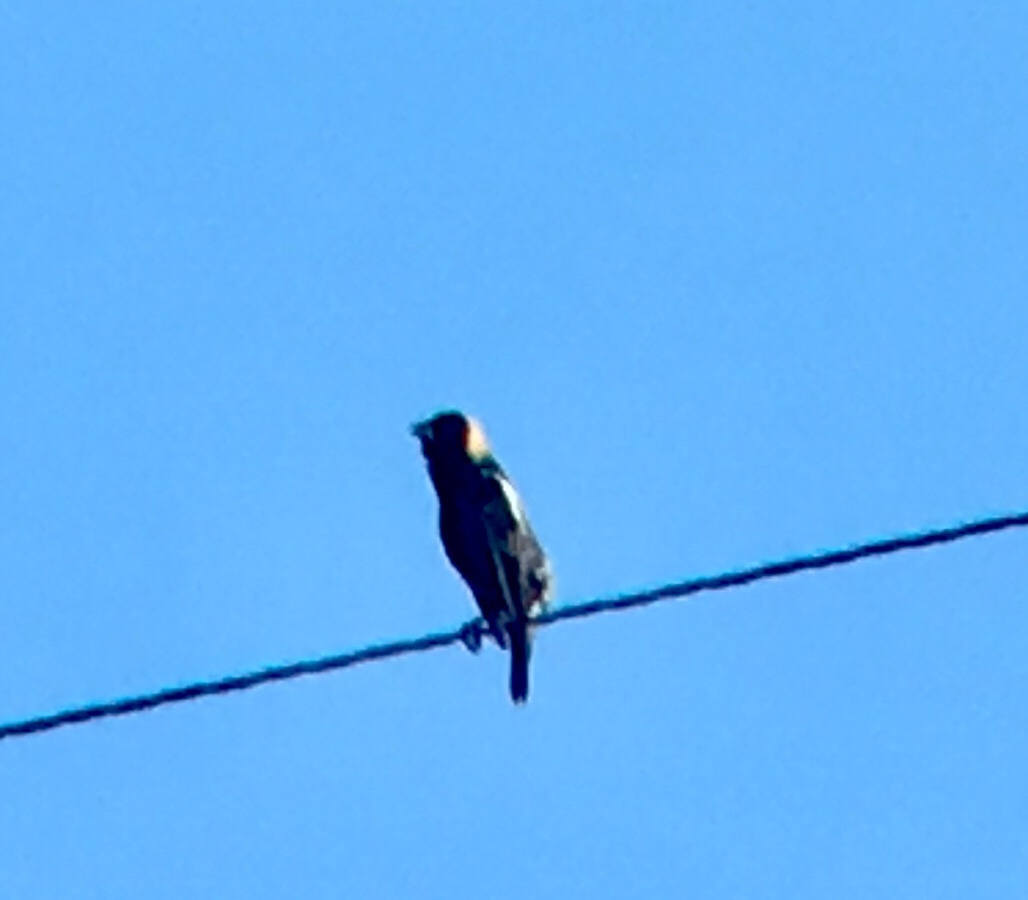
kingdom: Animalia
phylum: Chordata
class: Aves
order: Passeriformes
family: Icteridae
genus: Dolichonyx
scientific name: Dolichonyx oryzivorus
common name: Bobolink
